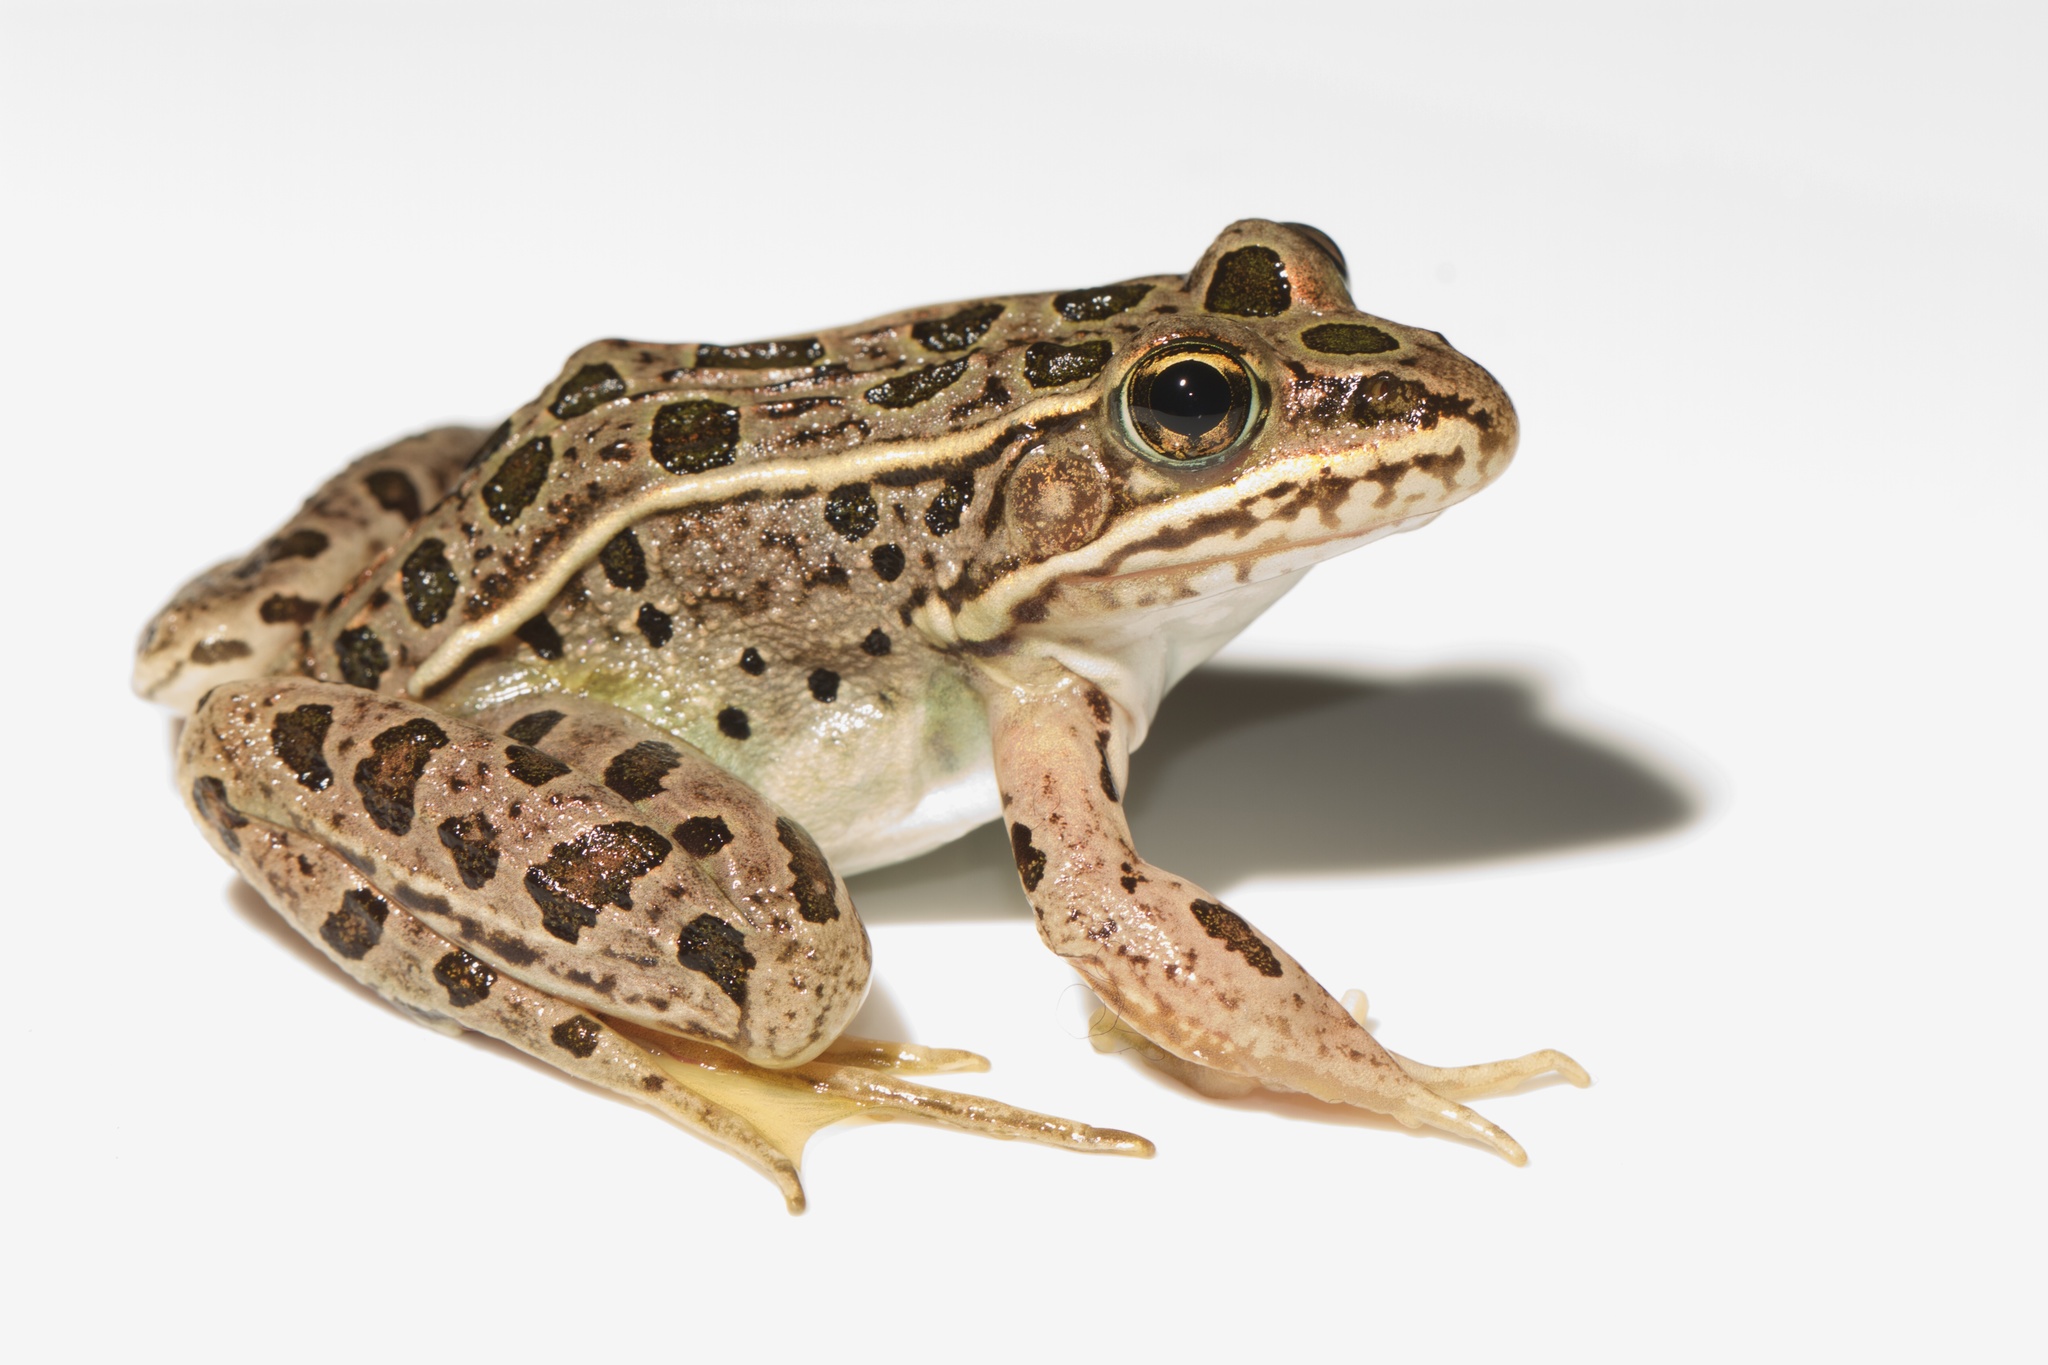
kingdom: Animalia
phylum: Chordata
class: Amphibia
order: Anura
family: Ranidae
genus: Lithobates
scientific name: Lithobates pipiens
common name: Northern leopard frog
